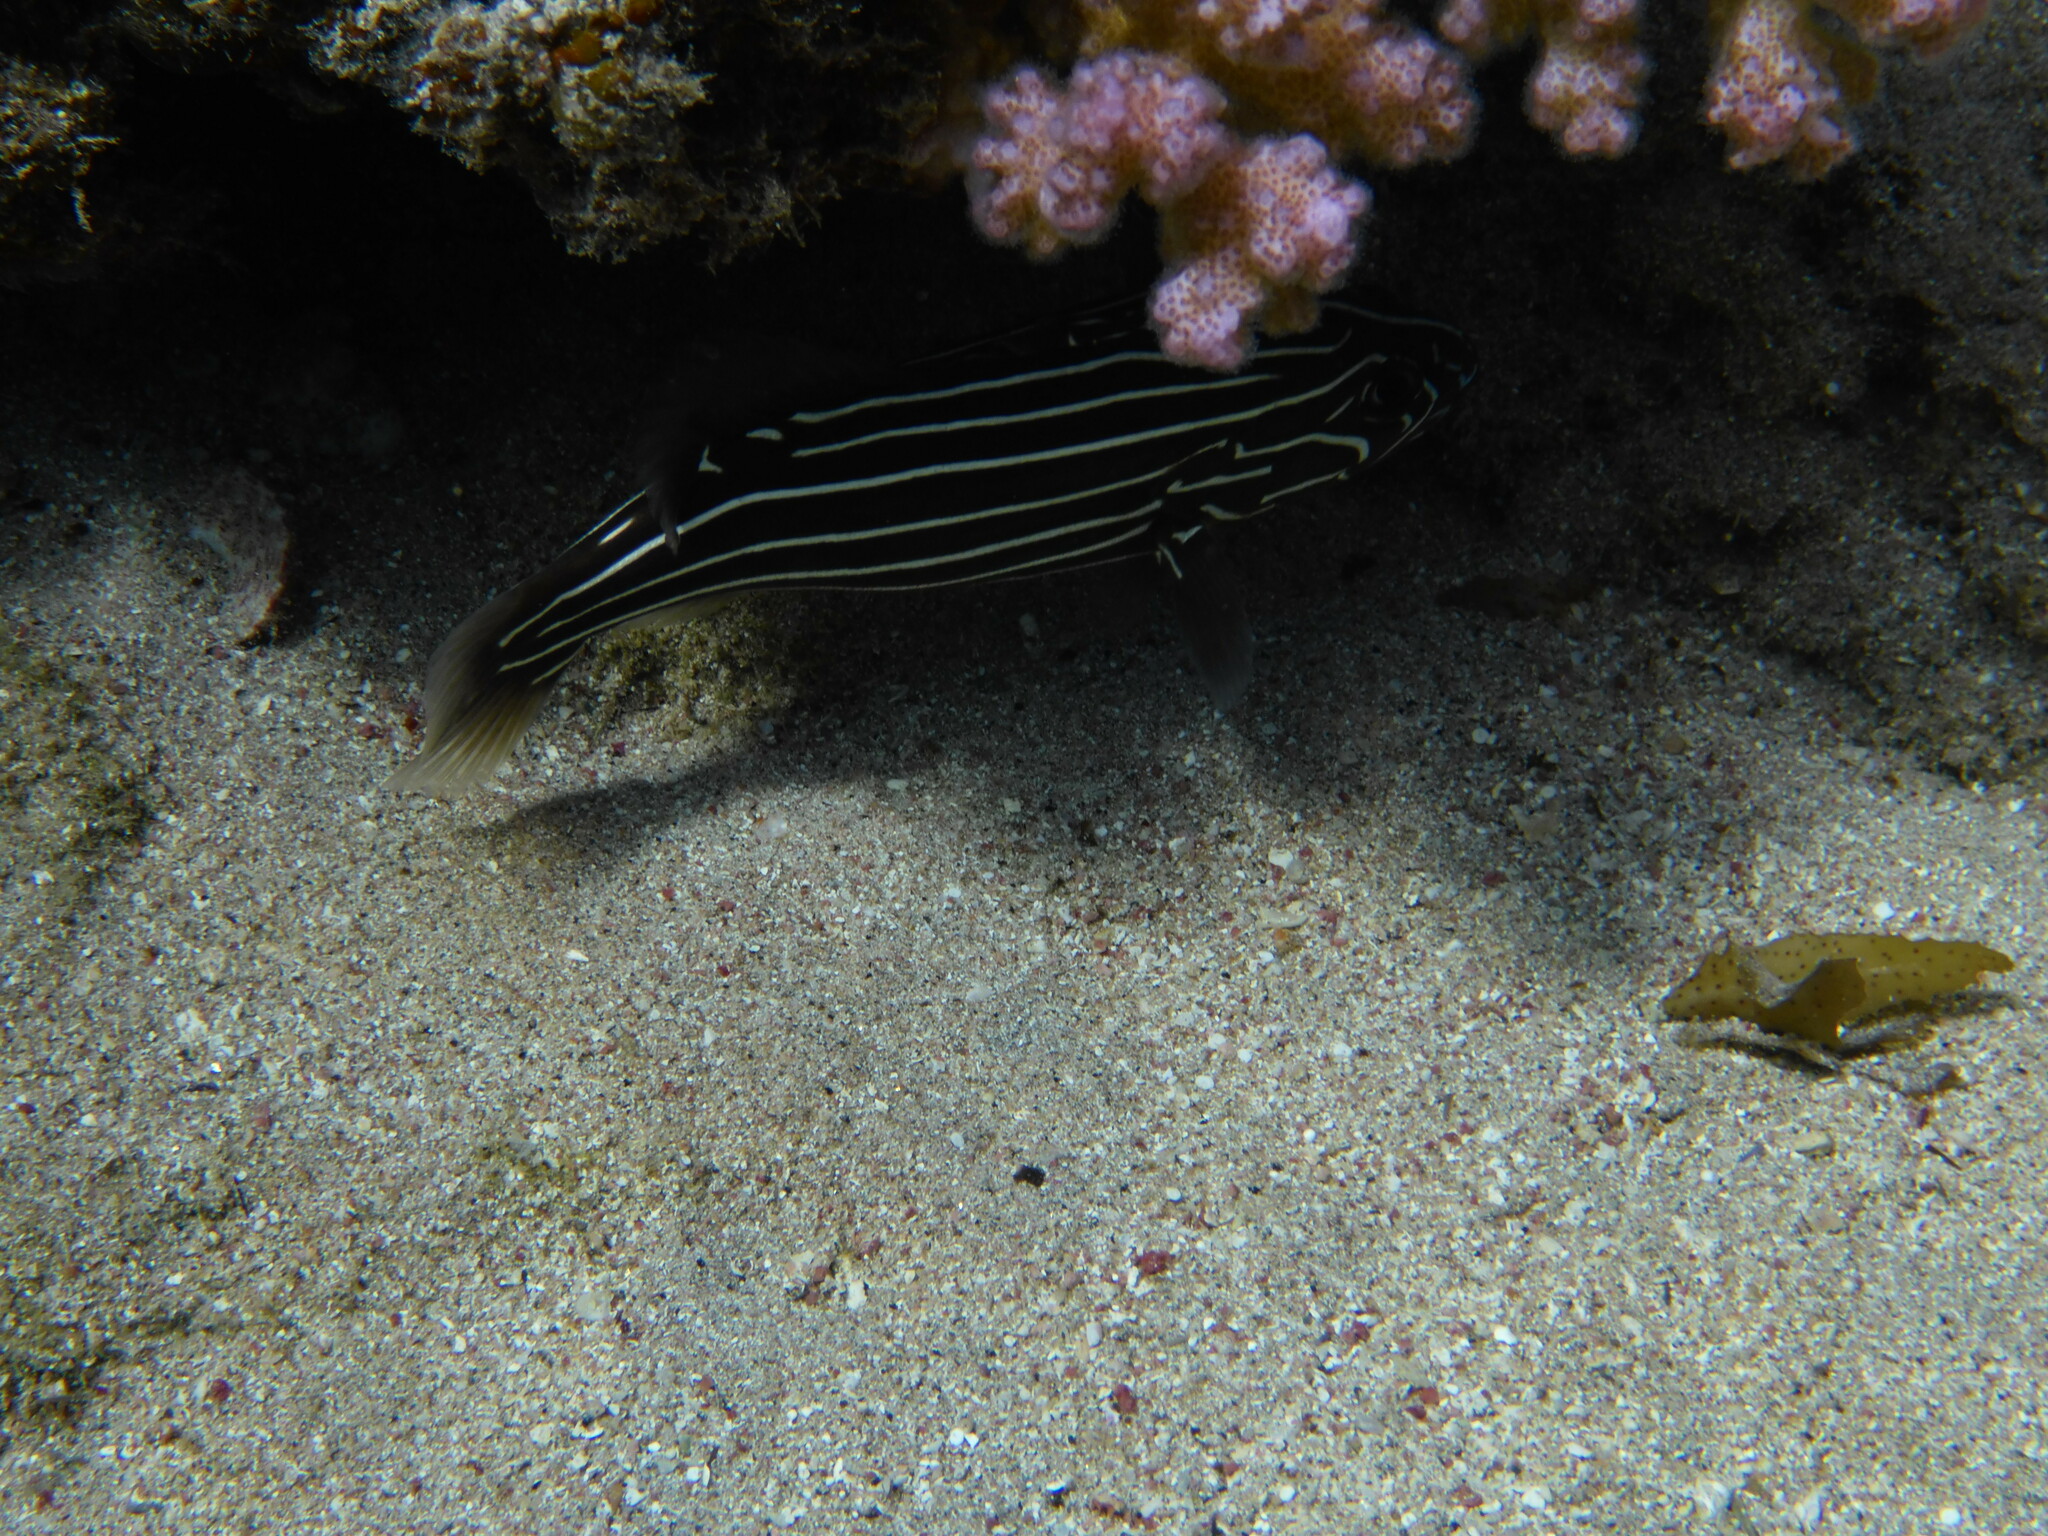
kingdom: Animalia
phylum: Chordata
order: Perciformes
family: Serranidae
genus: Grammistes
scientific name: Grammistes sexlineatus
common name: Sixline soapfish
